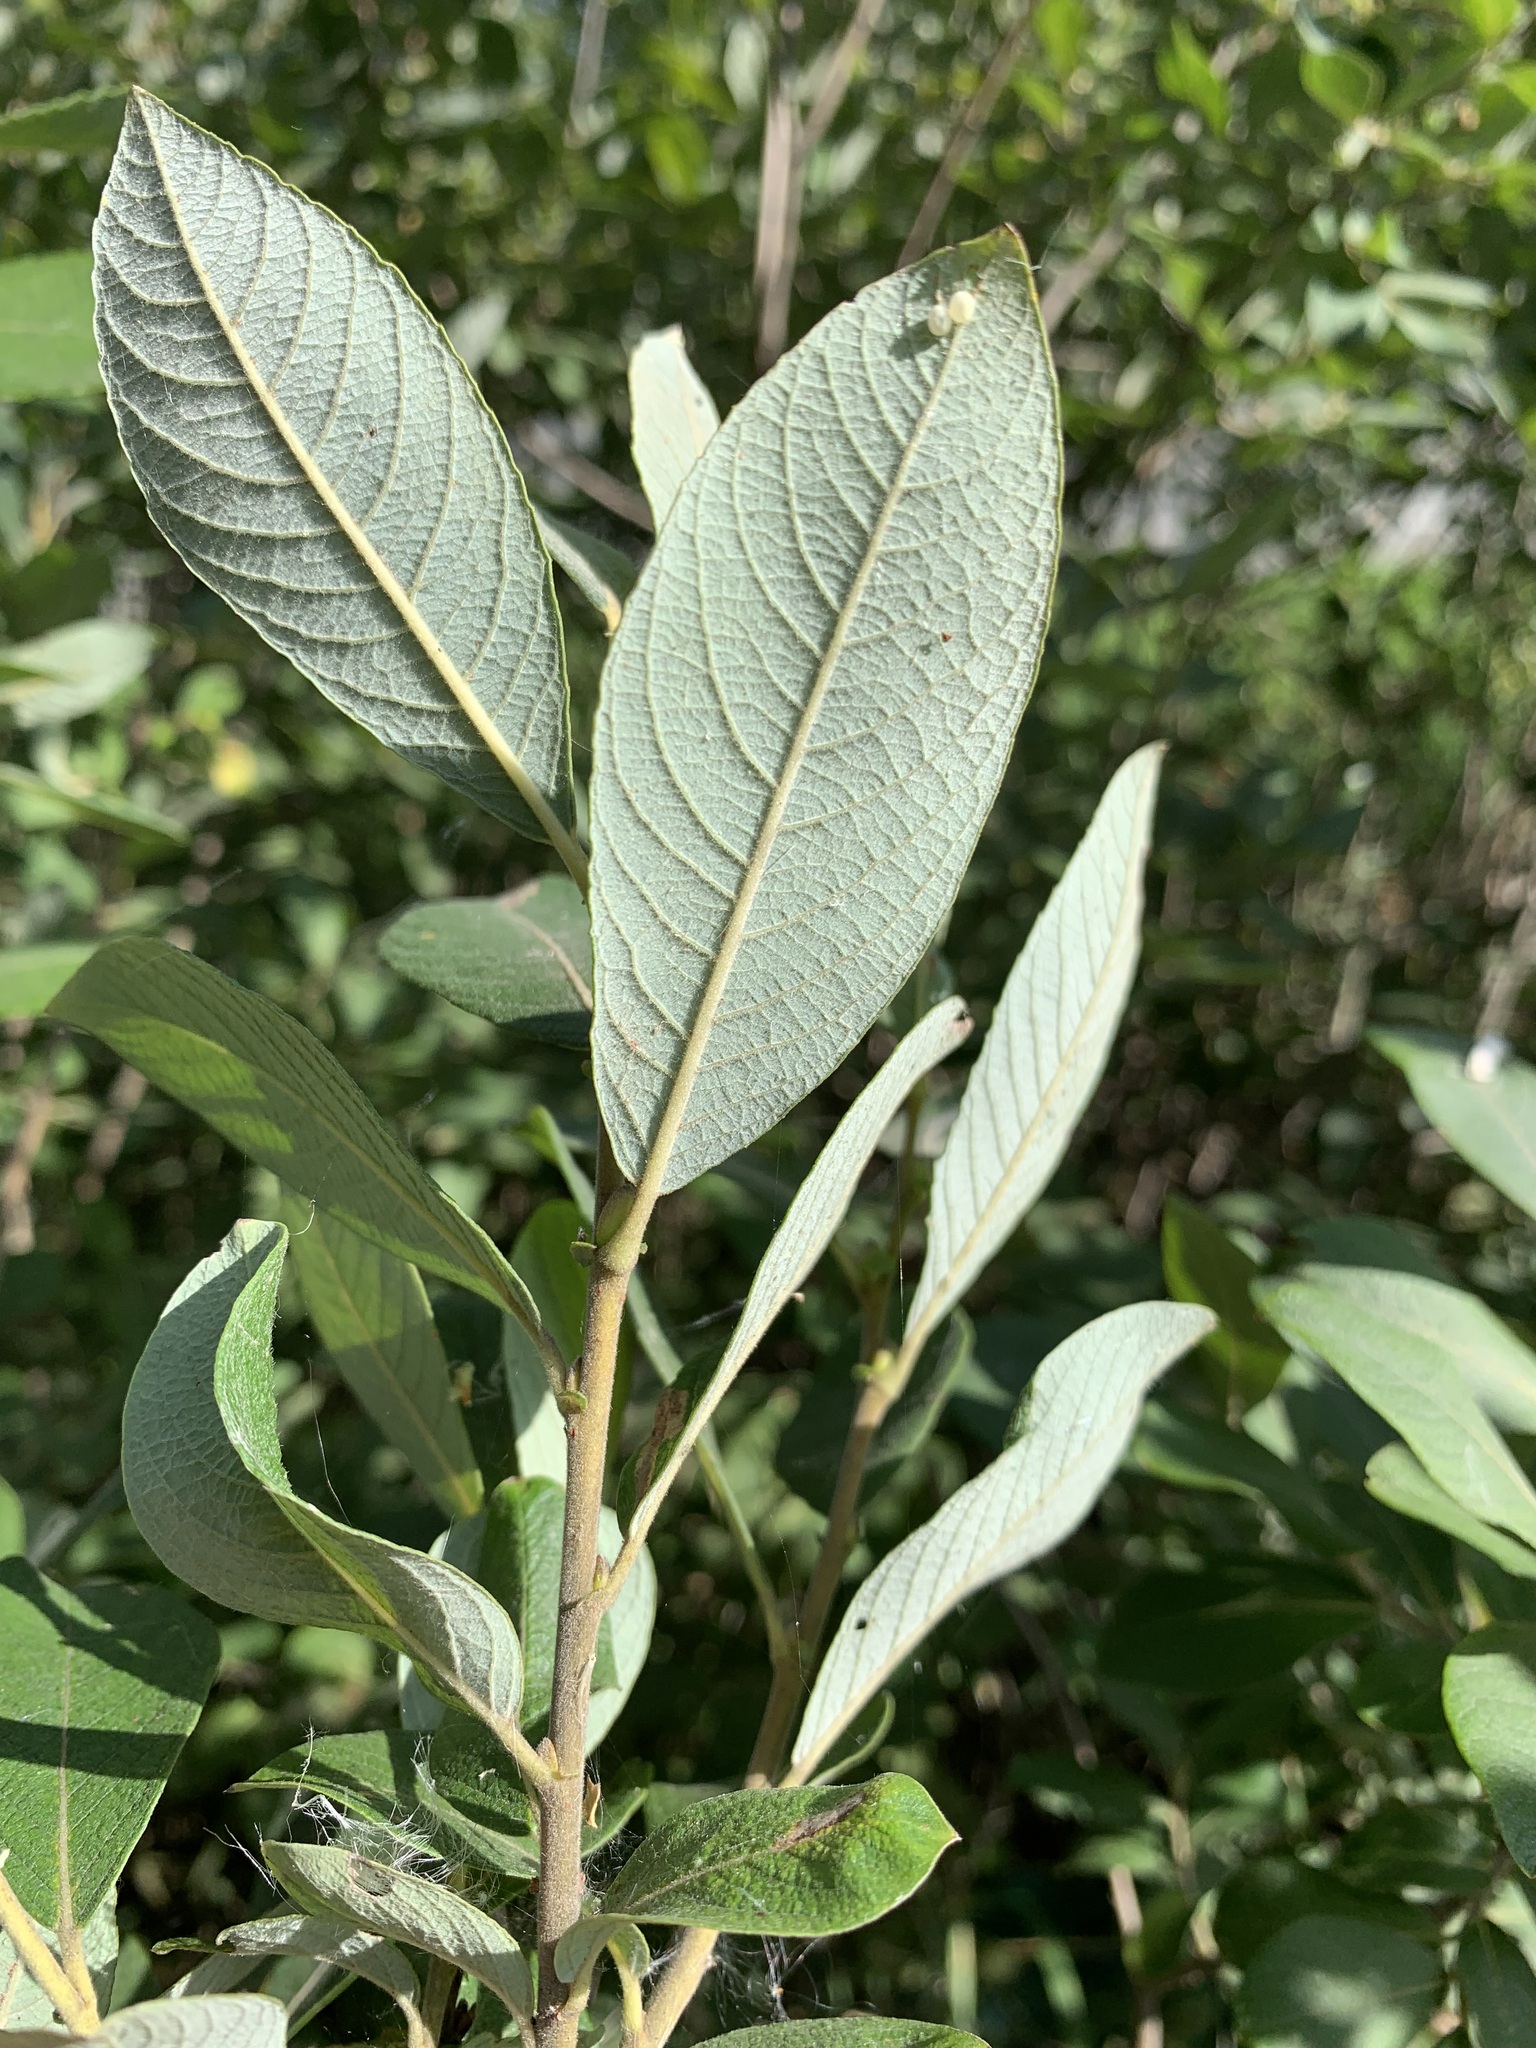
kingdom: Plantae
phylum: Tracheophyta
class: Magnoliopsida
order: Malpighiales
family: Salicaceae
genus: Salix
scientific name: Salix cinerea
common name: Common sallow
